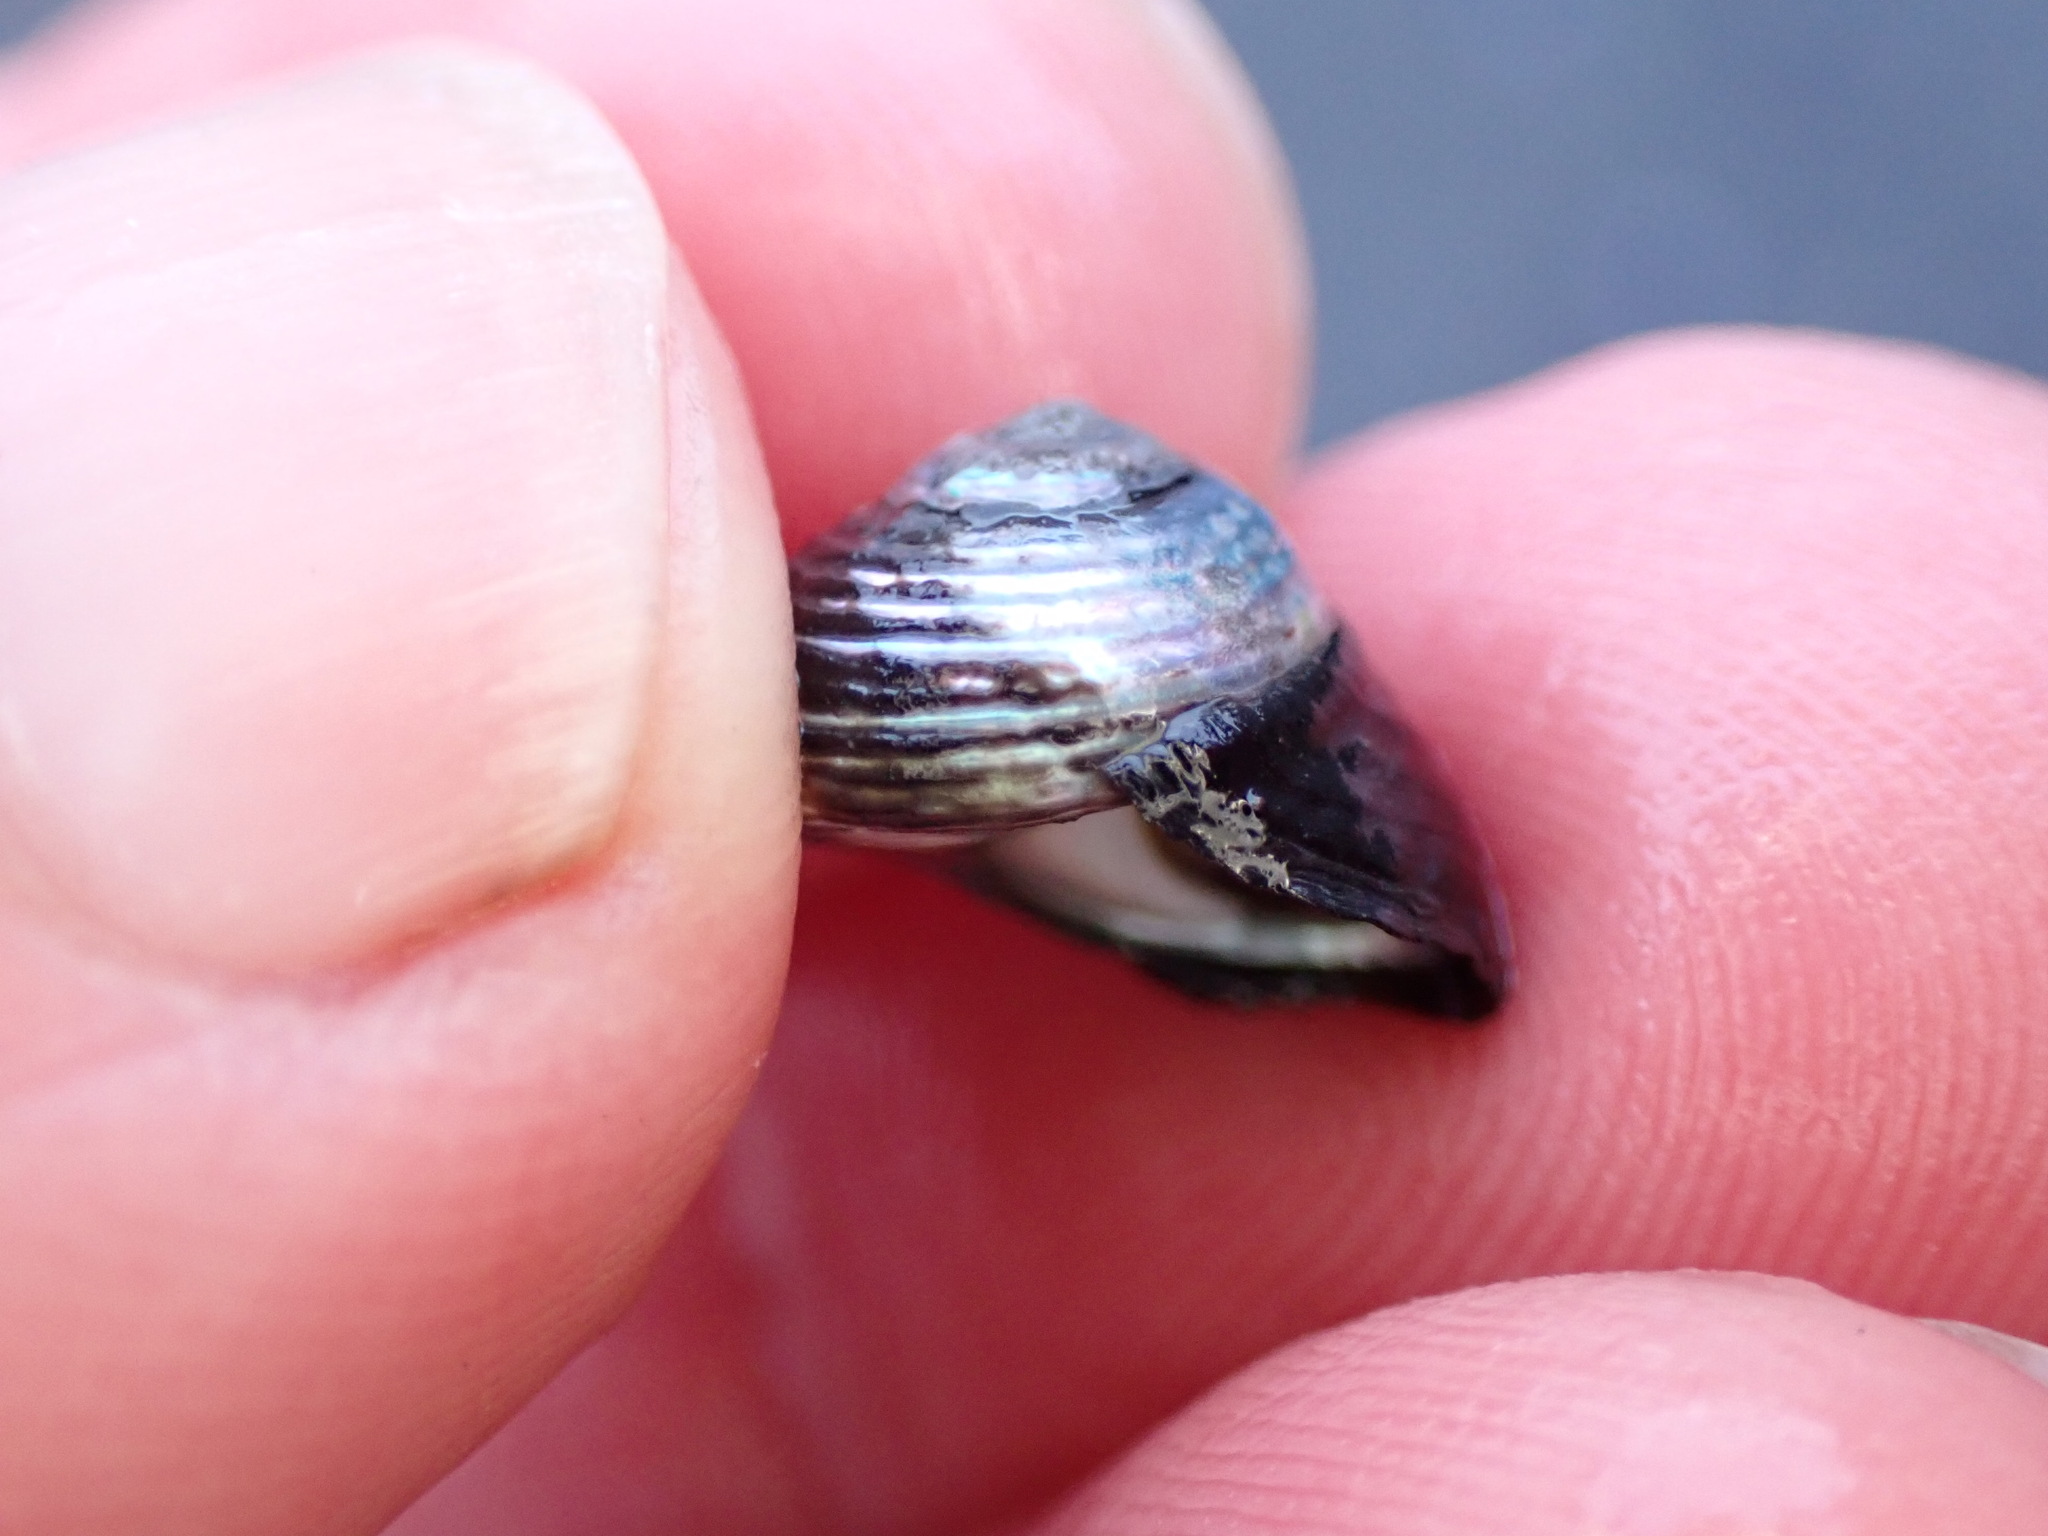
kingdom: Animalia
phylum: Mollusca
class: Gastropoda
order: Trochida
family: Trochidae
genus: Diloma
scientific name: Diloma aridum
